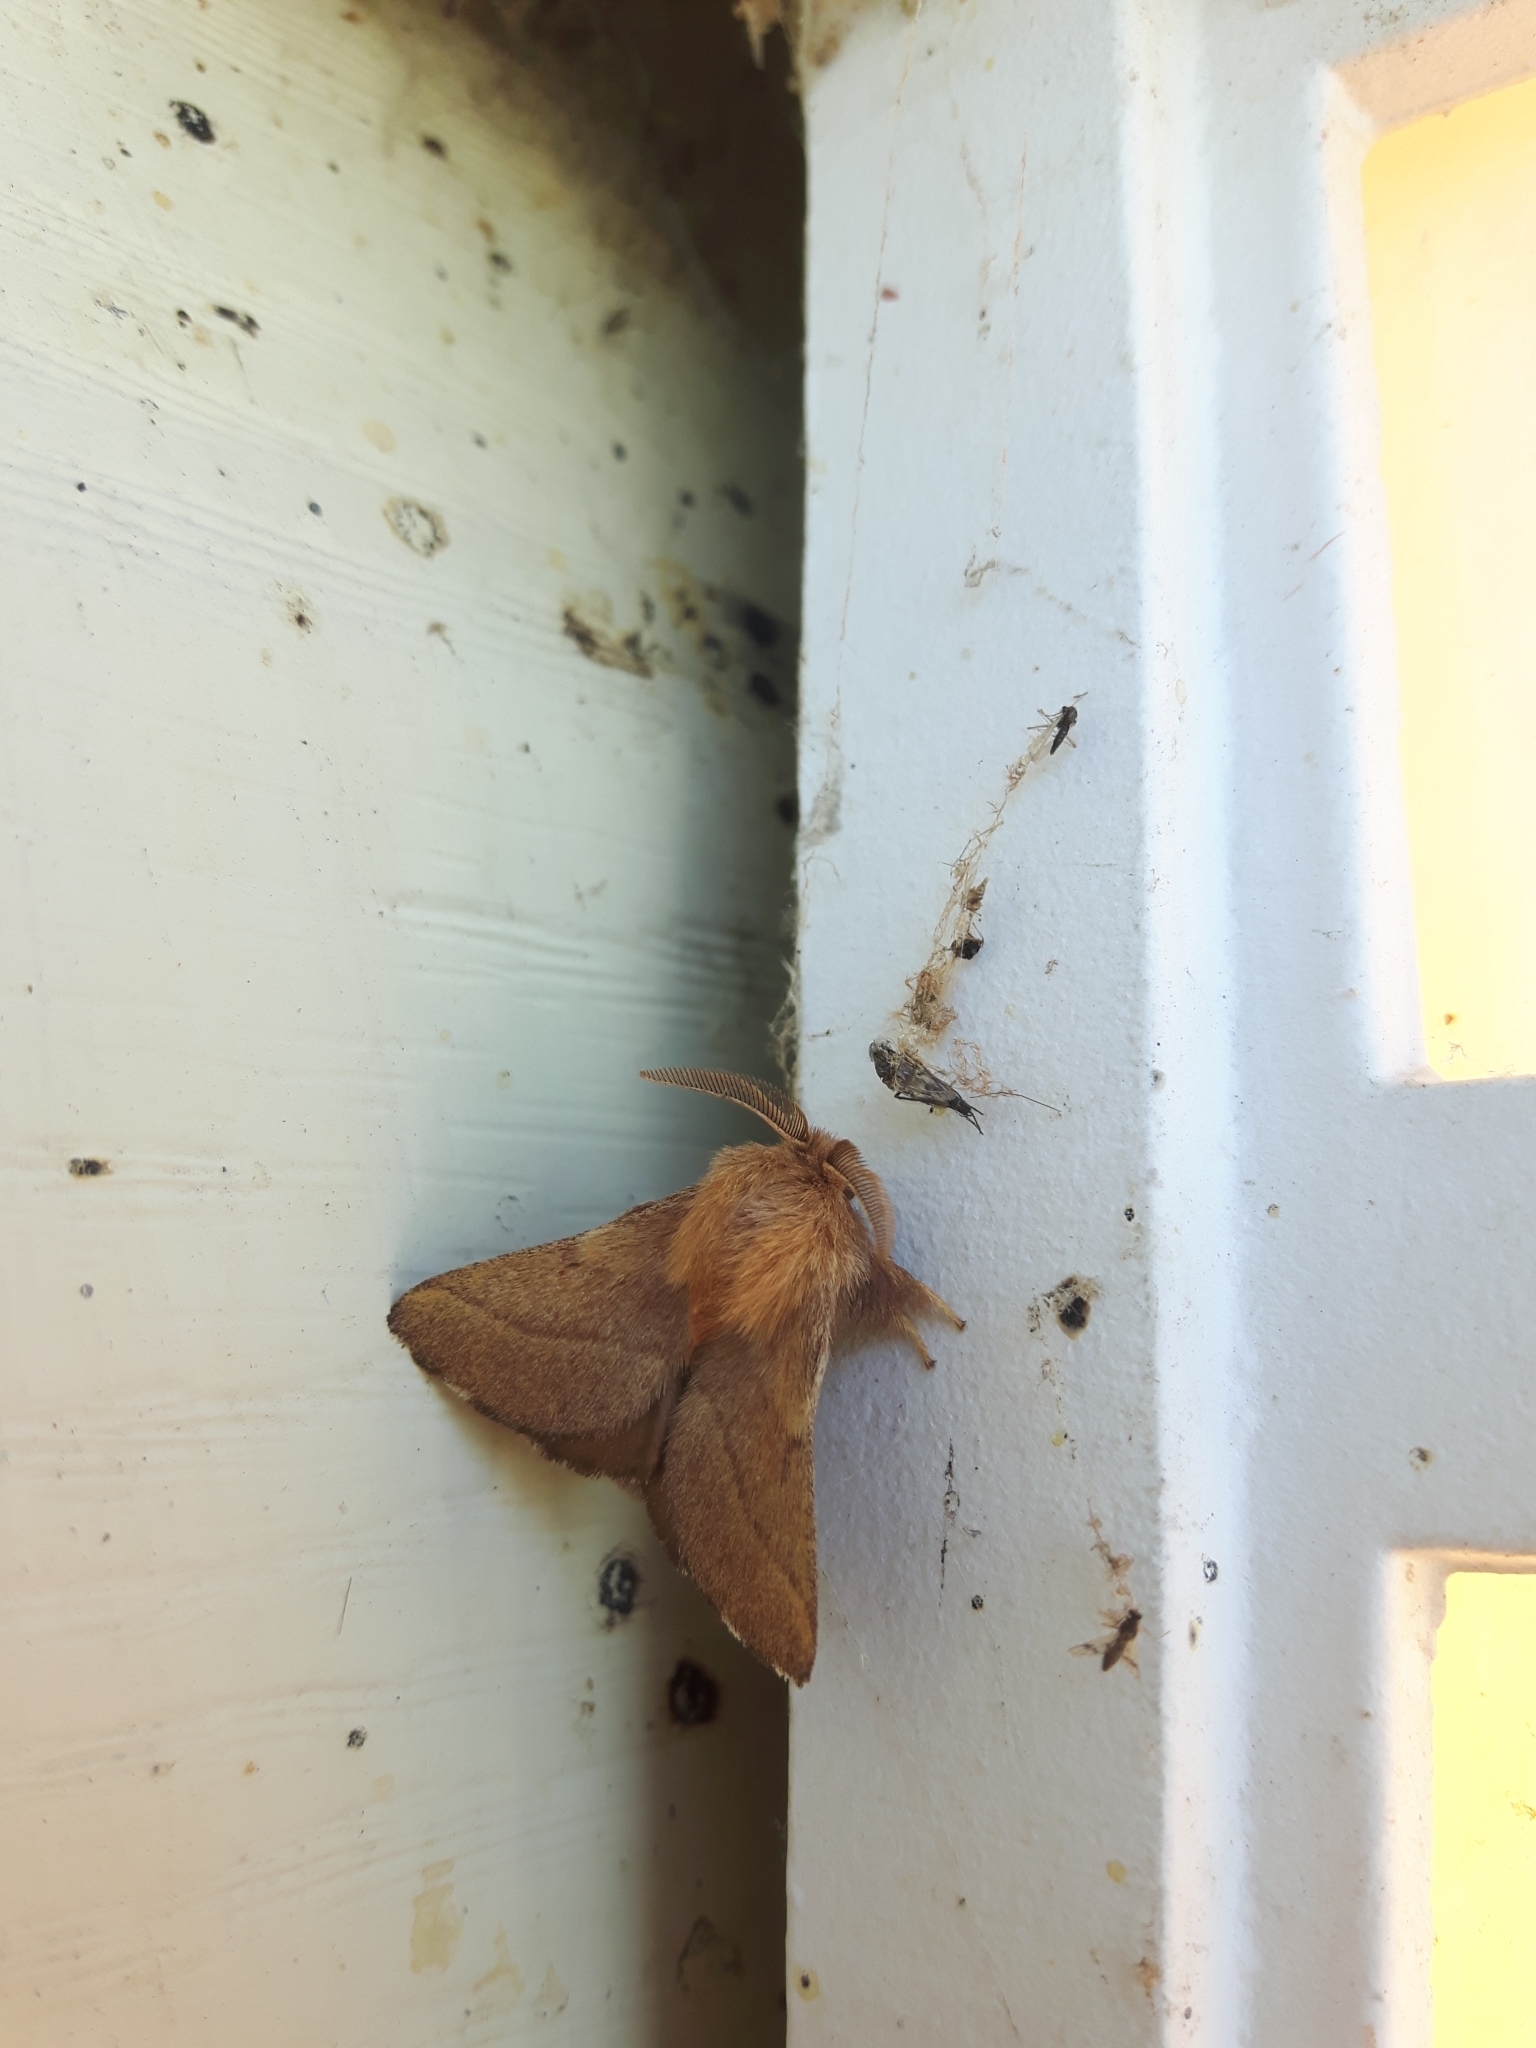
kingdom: Animalia
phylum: Arthropoda
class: Insecta
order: Lepidoptera
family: Lasiocampidae
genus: Malacosoma
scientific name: Malacosoma disstria
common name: Forest tent caterpillar
